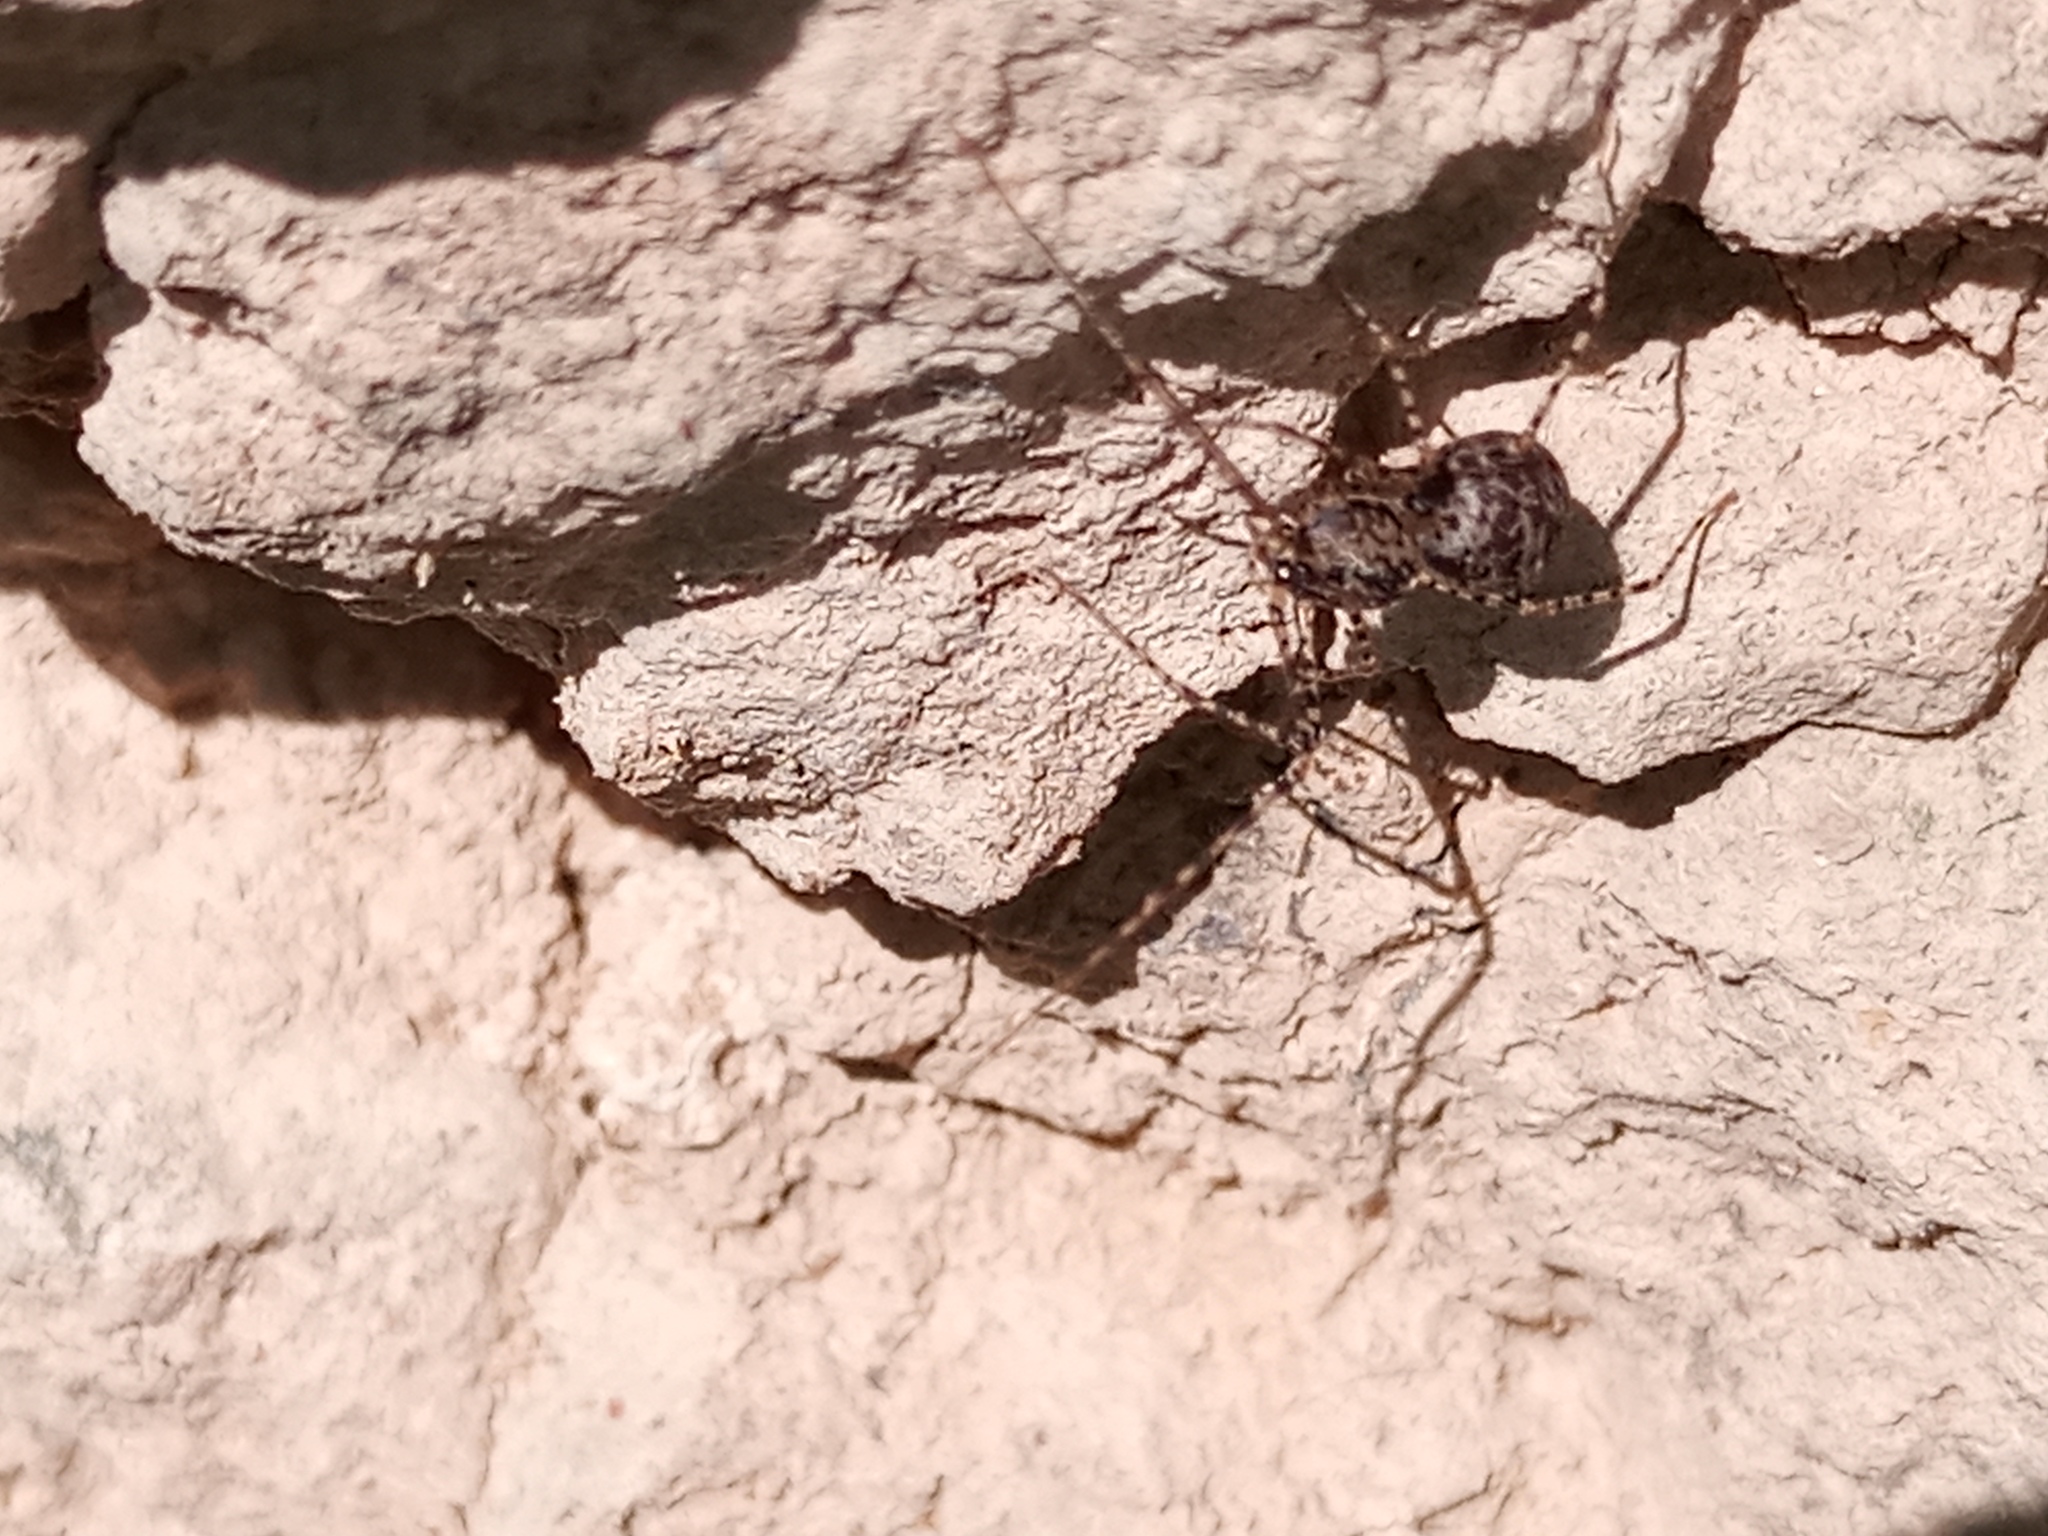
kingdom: Animalia
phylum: Arthropoda
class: Arachnida
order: Araneae
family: Scytodidae
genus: Scytodes
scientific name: Scytodes globula
